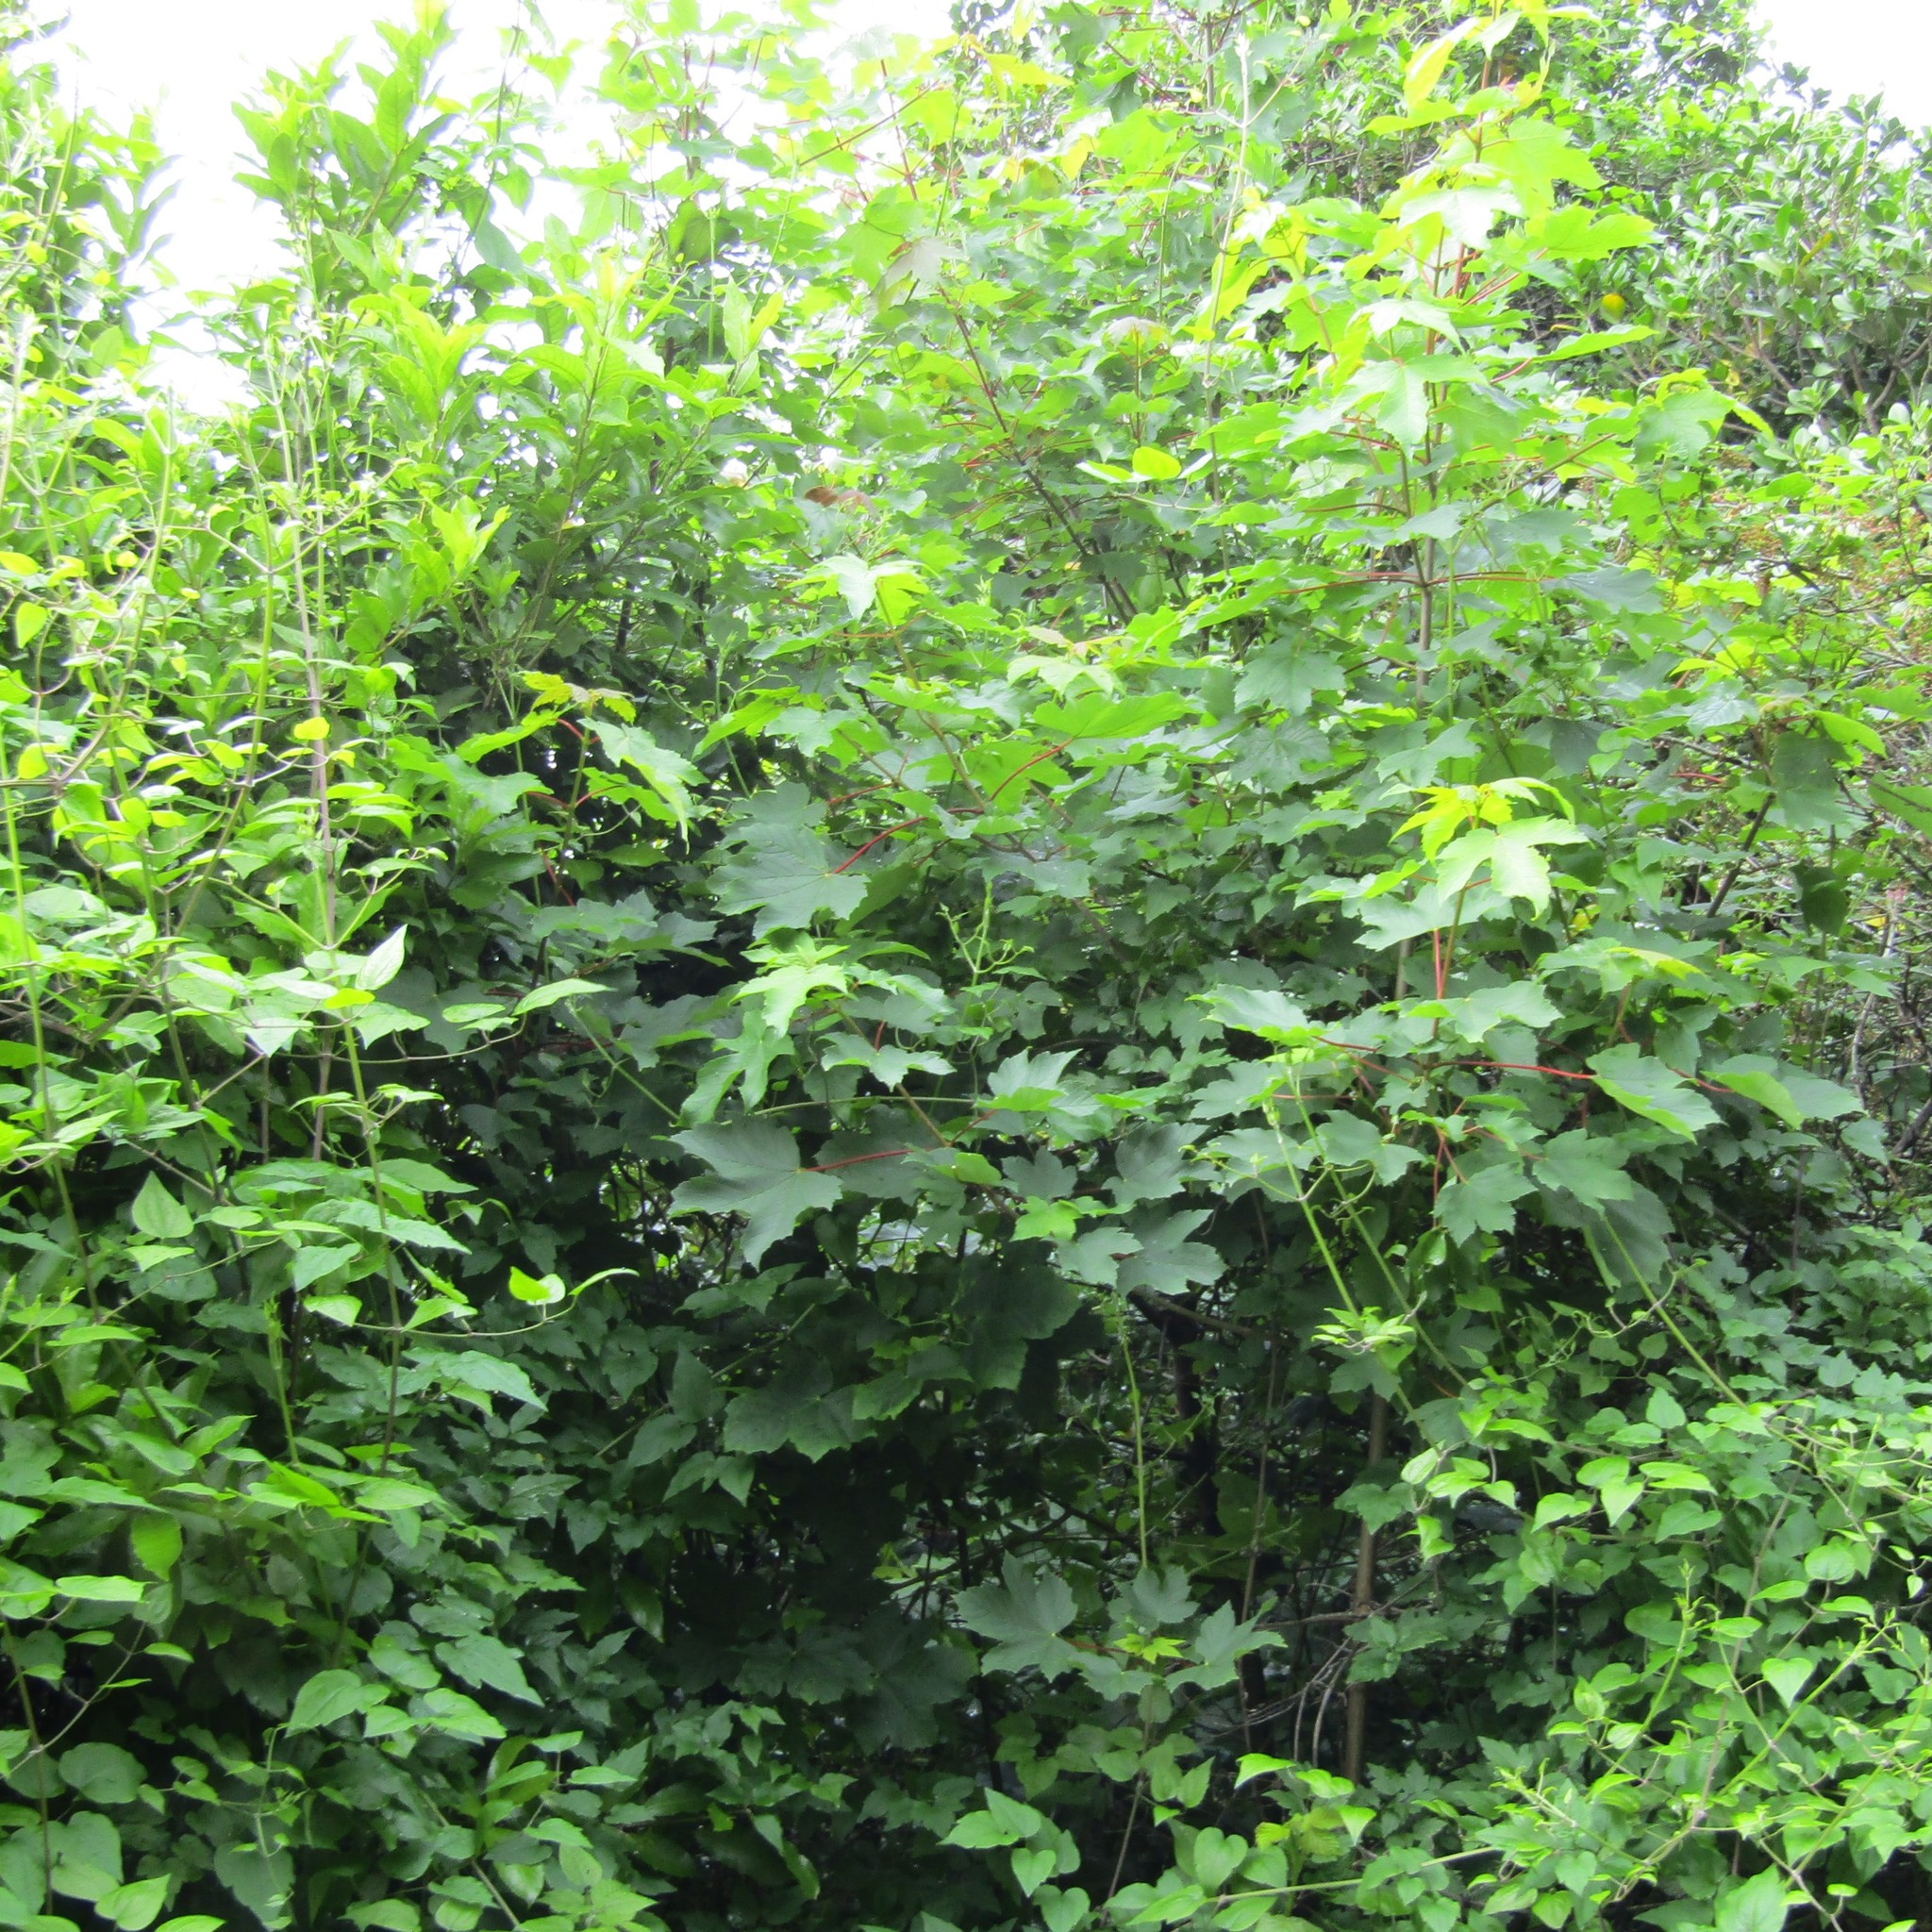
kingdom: Plantae
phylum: Tracheophyta
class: Magnoliopsida
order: Ranunculales
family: Ranunculaceae
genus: Clematis
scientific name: Clematis vitalba
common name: Evergreen clematis
